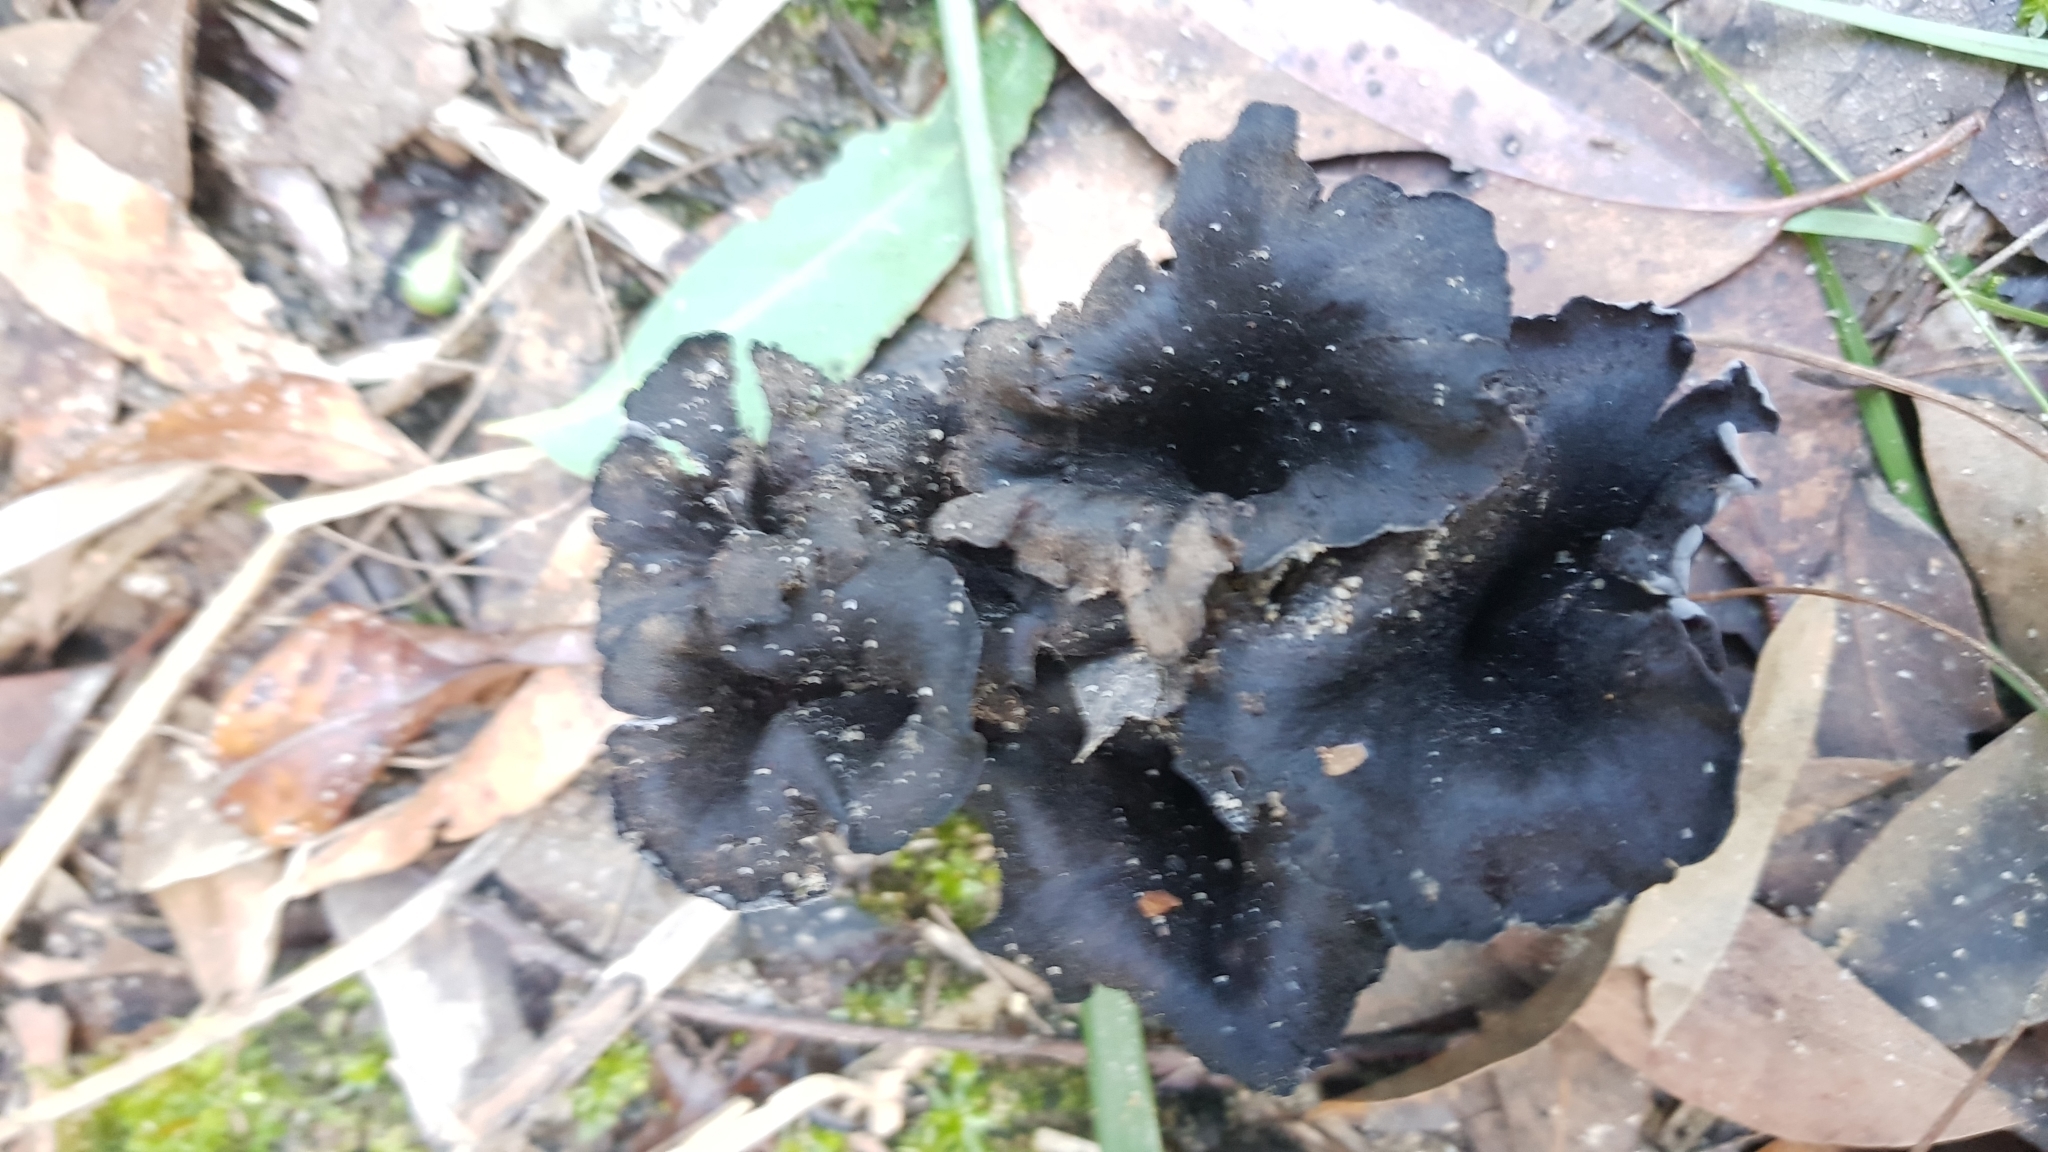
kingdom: Fungi
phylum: Basidiomycota
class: Agaricomycetes
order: Cantharellales
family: Hydnaceae
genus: Craterellus
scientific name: Craterellus cornucopioides
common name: Horn of plenty
